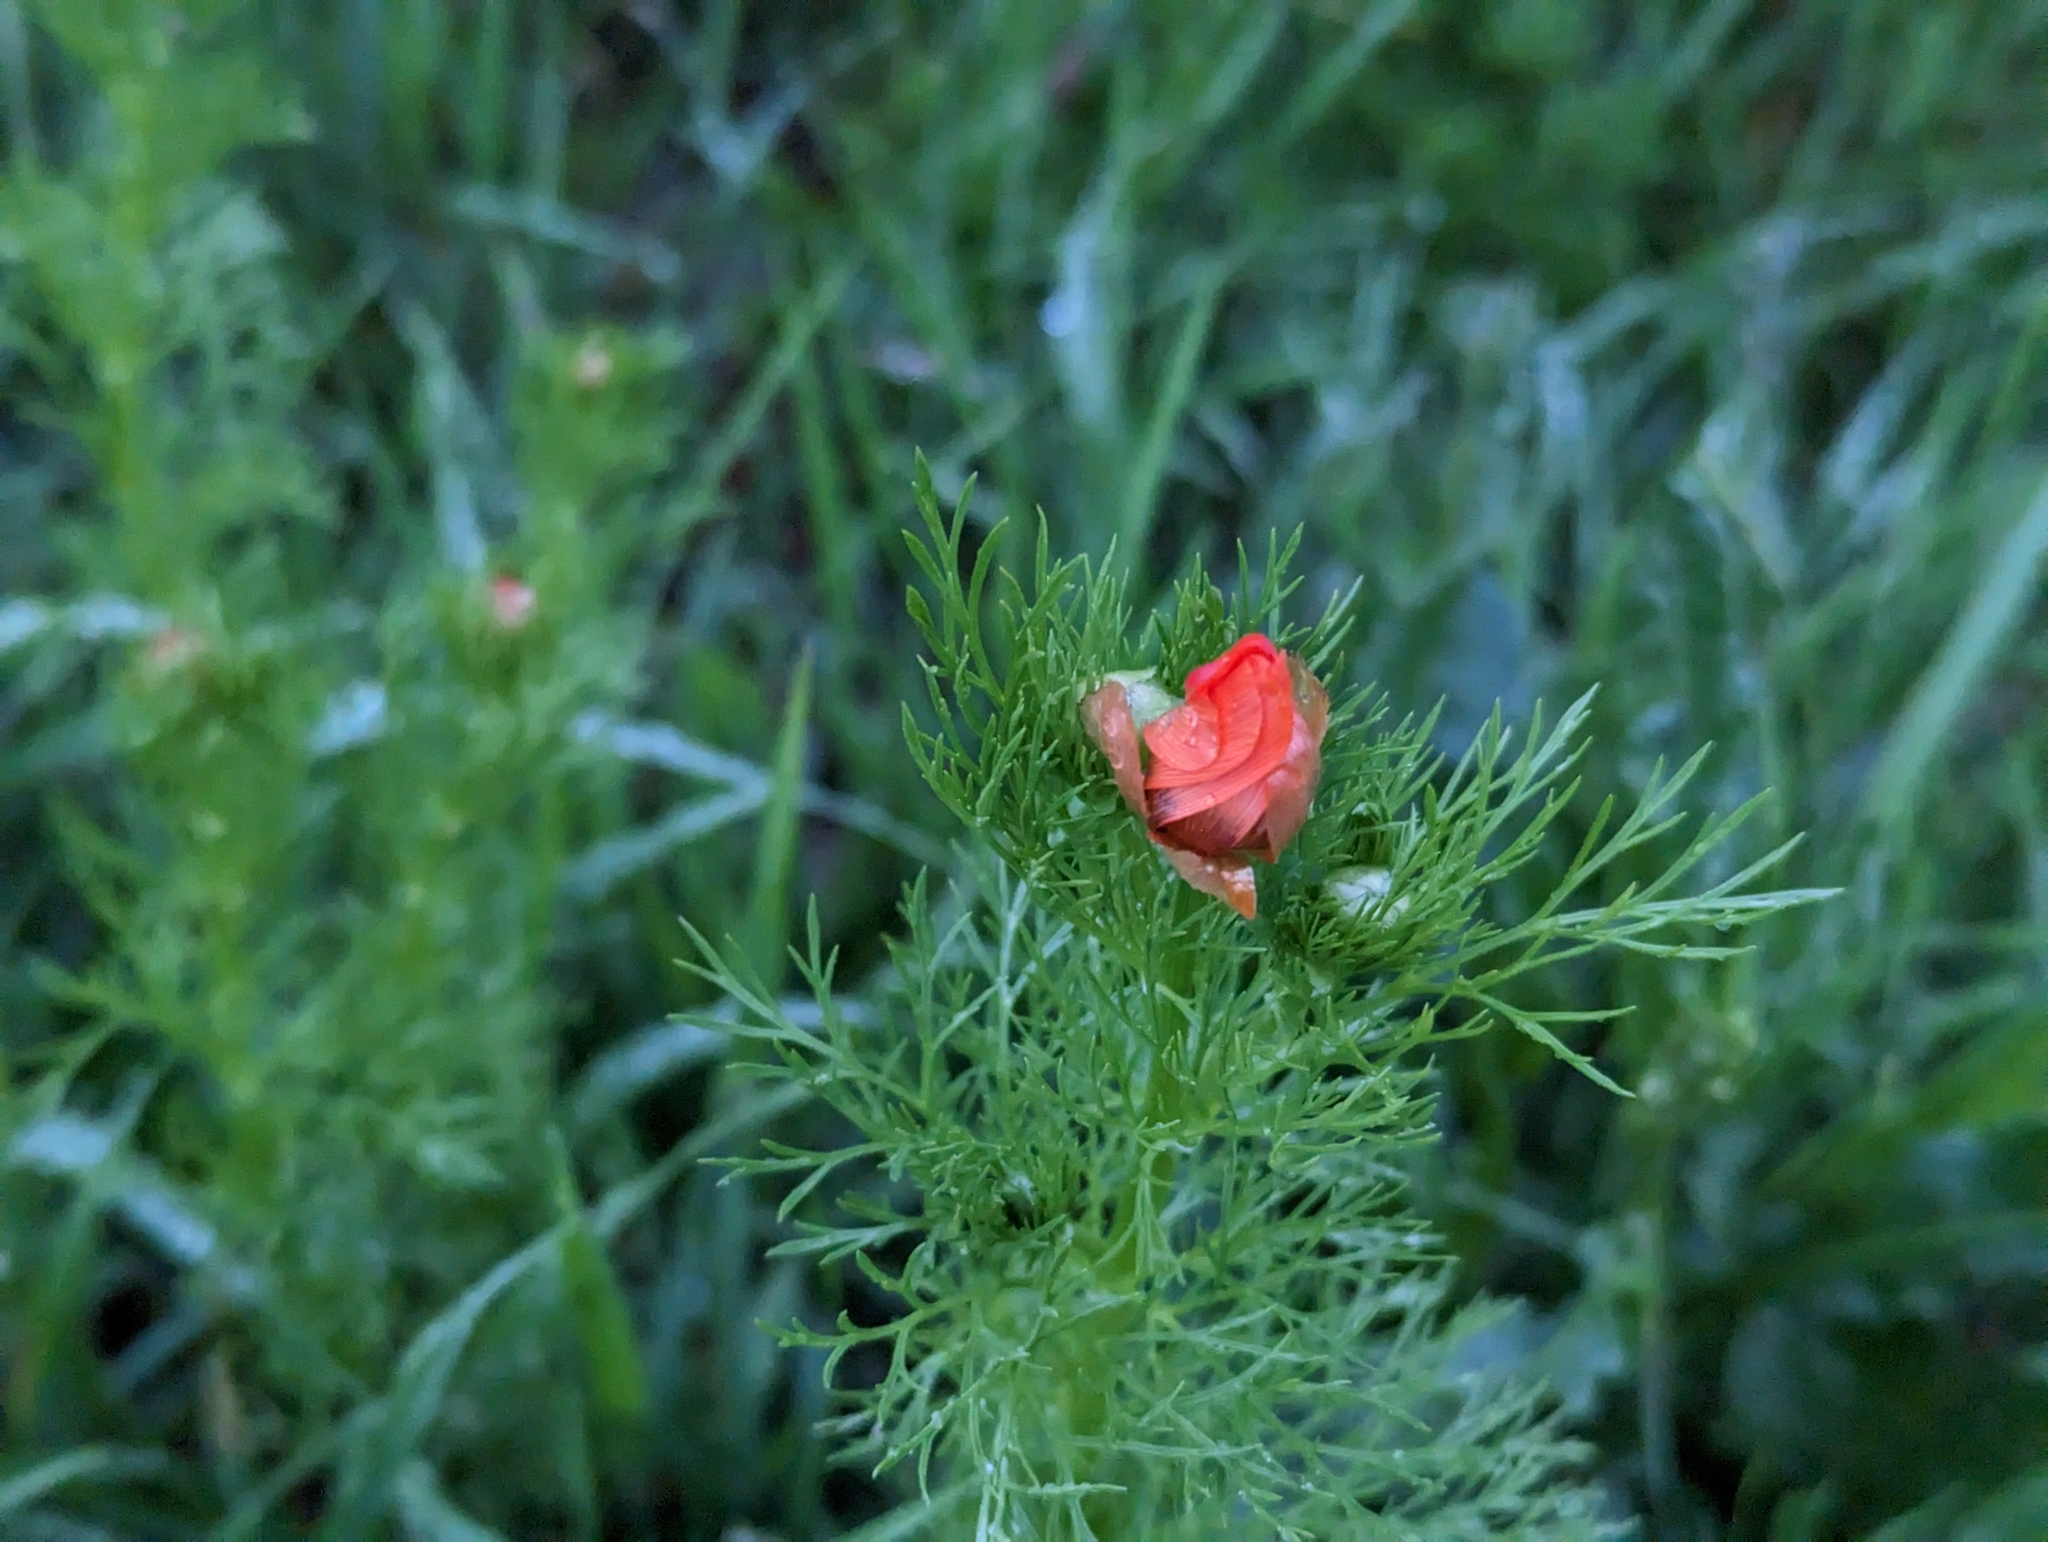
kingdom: Plantae
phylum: Tracheophyta
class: Magnoliopsida
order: Ranunculales
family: Ranunculaceae
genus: Adonis
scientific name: Adonis aestivalis
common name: Summer pheasant's-eye
